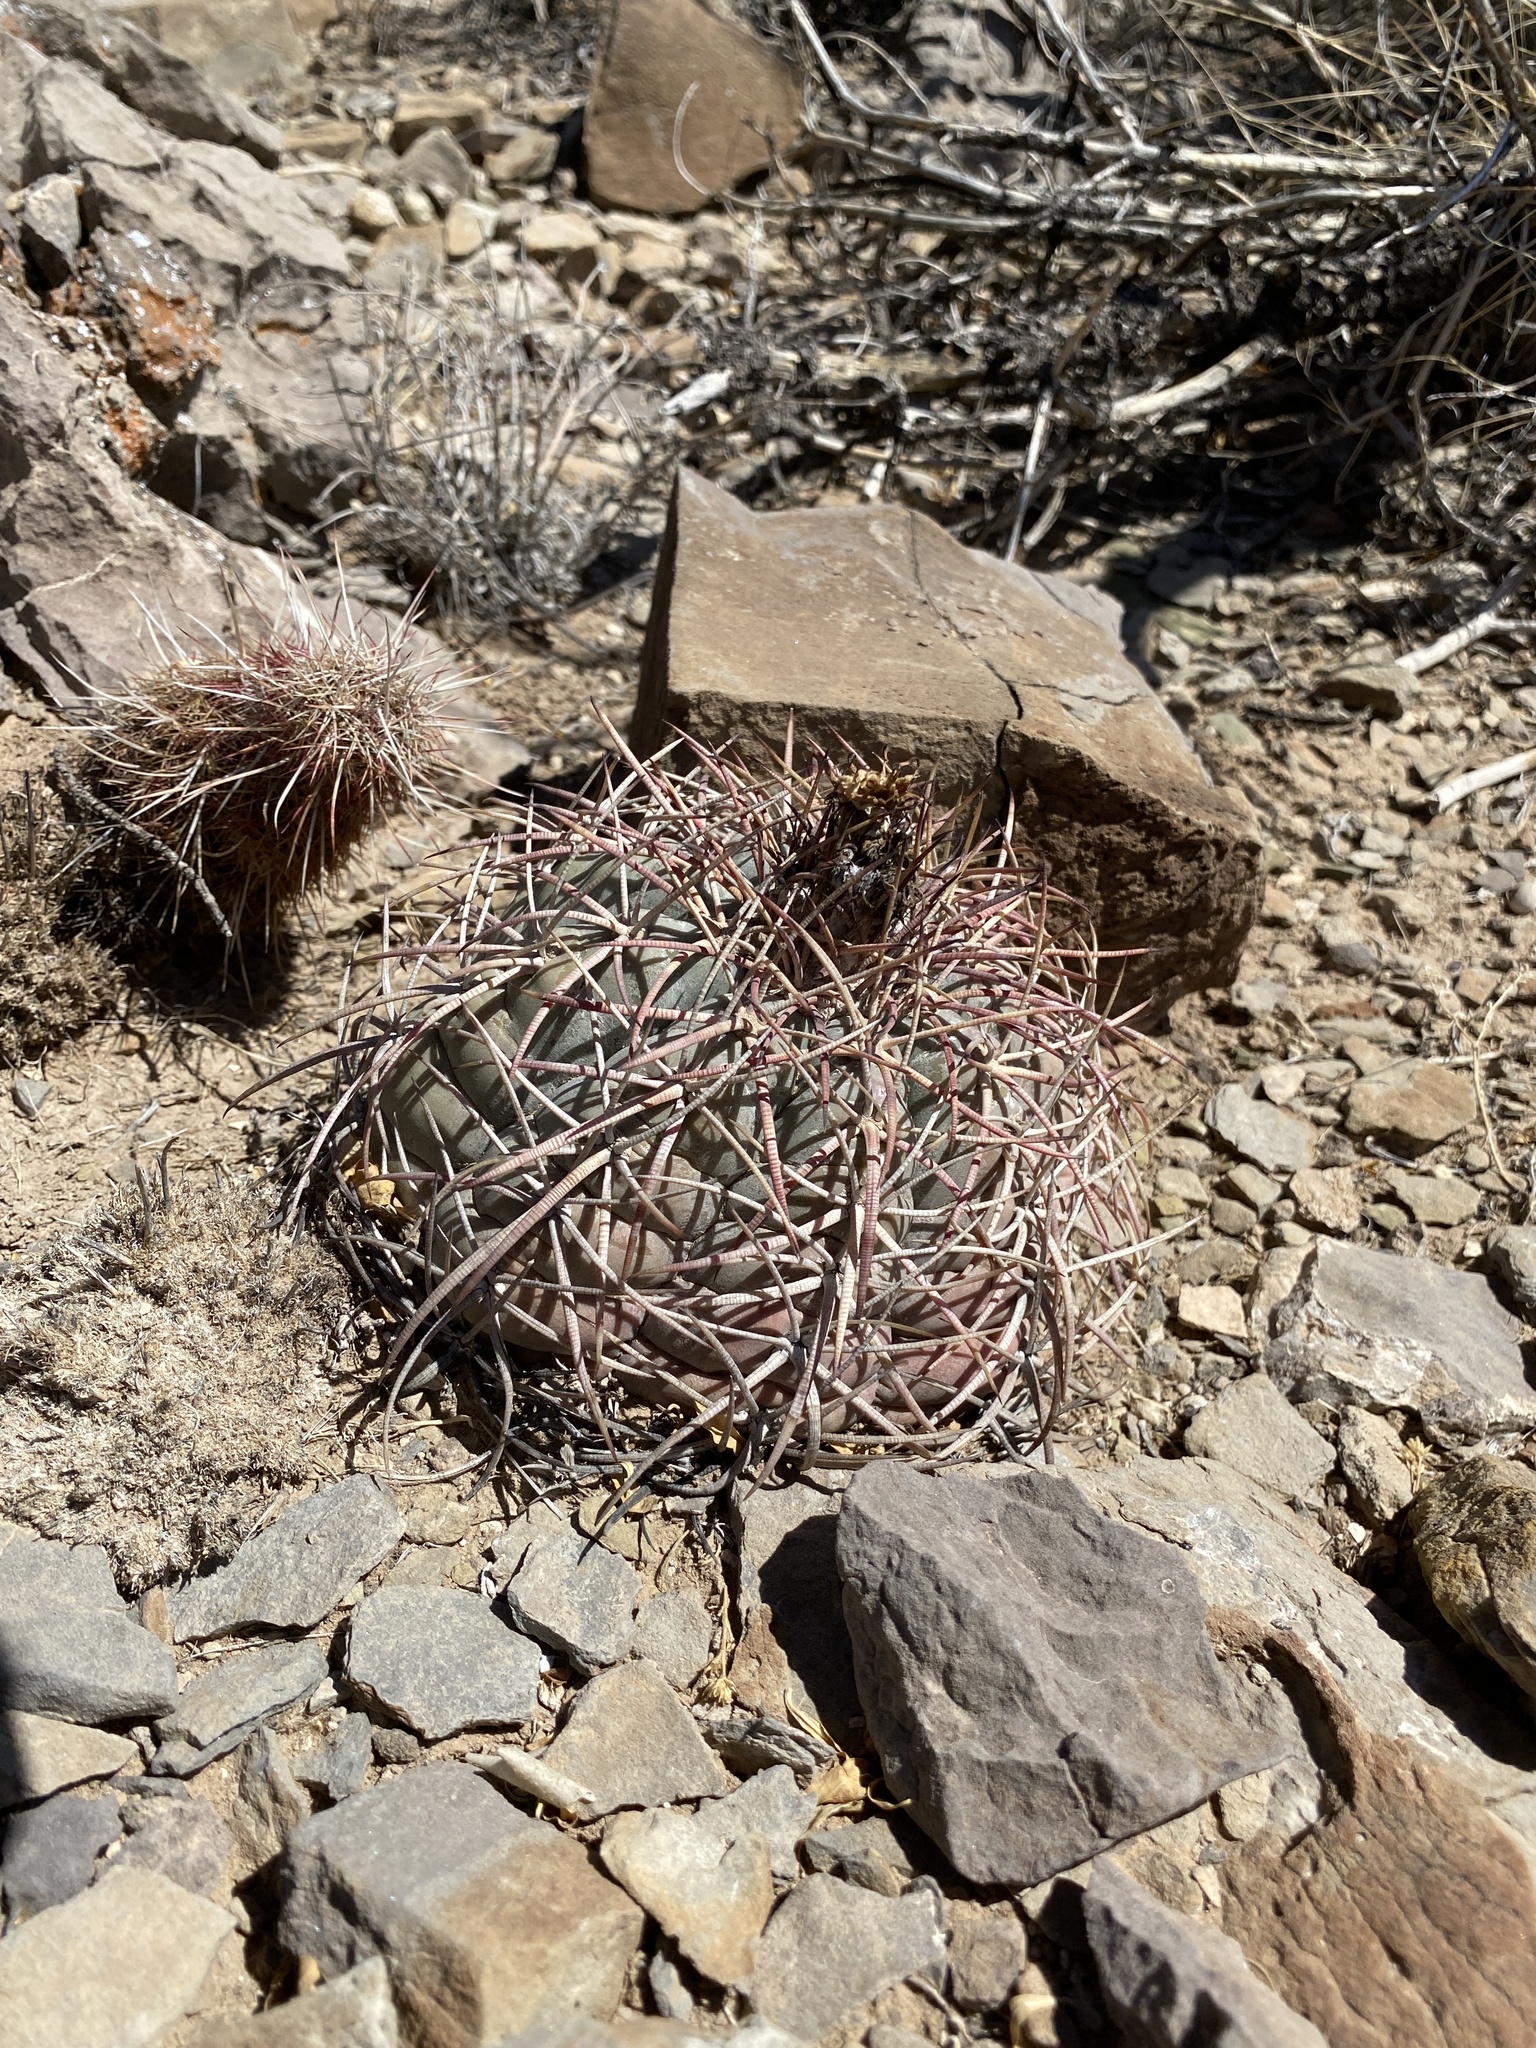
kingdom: Plantae
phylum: Tracheophyta
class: Magnoliopsida
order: Caryophyllales
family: Cactaceae
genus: Echinocactus
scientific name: Echinocactus horizonthalonius
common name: Devilshead
